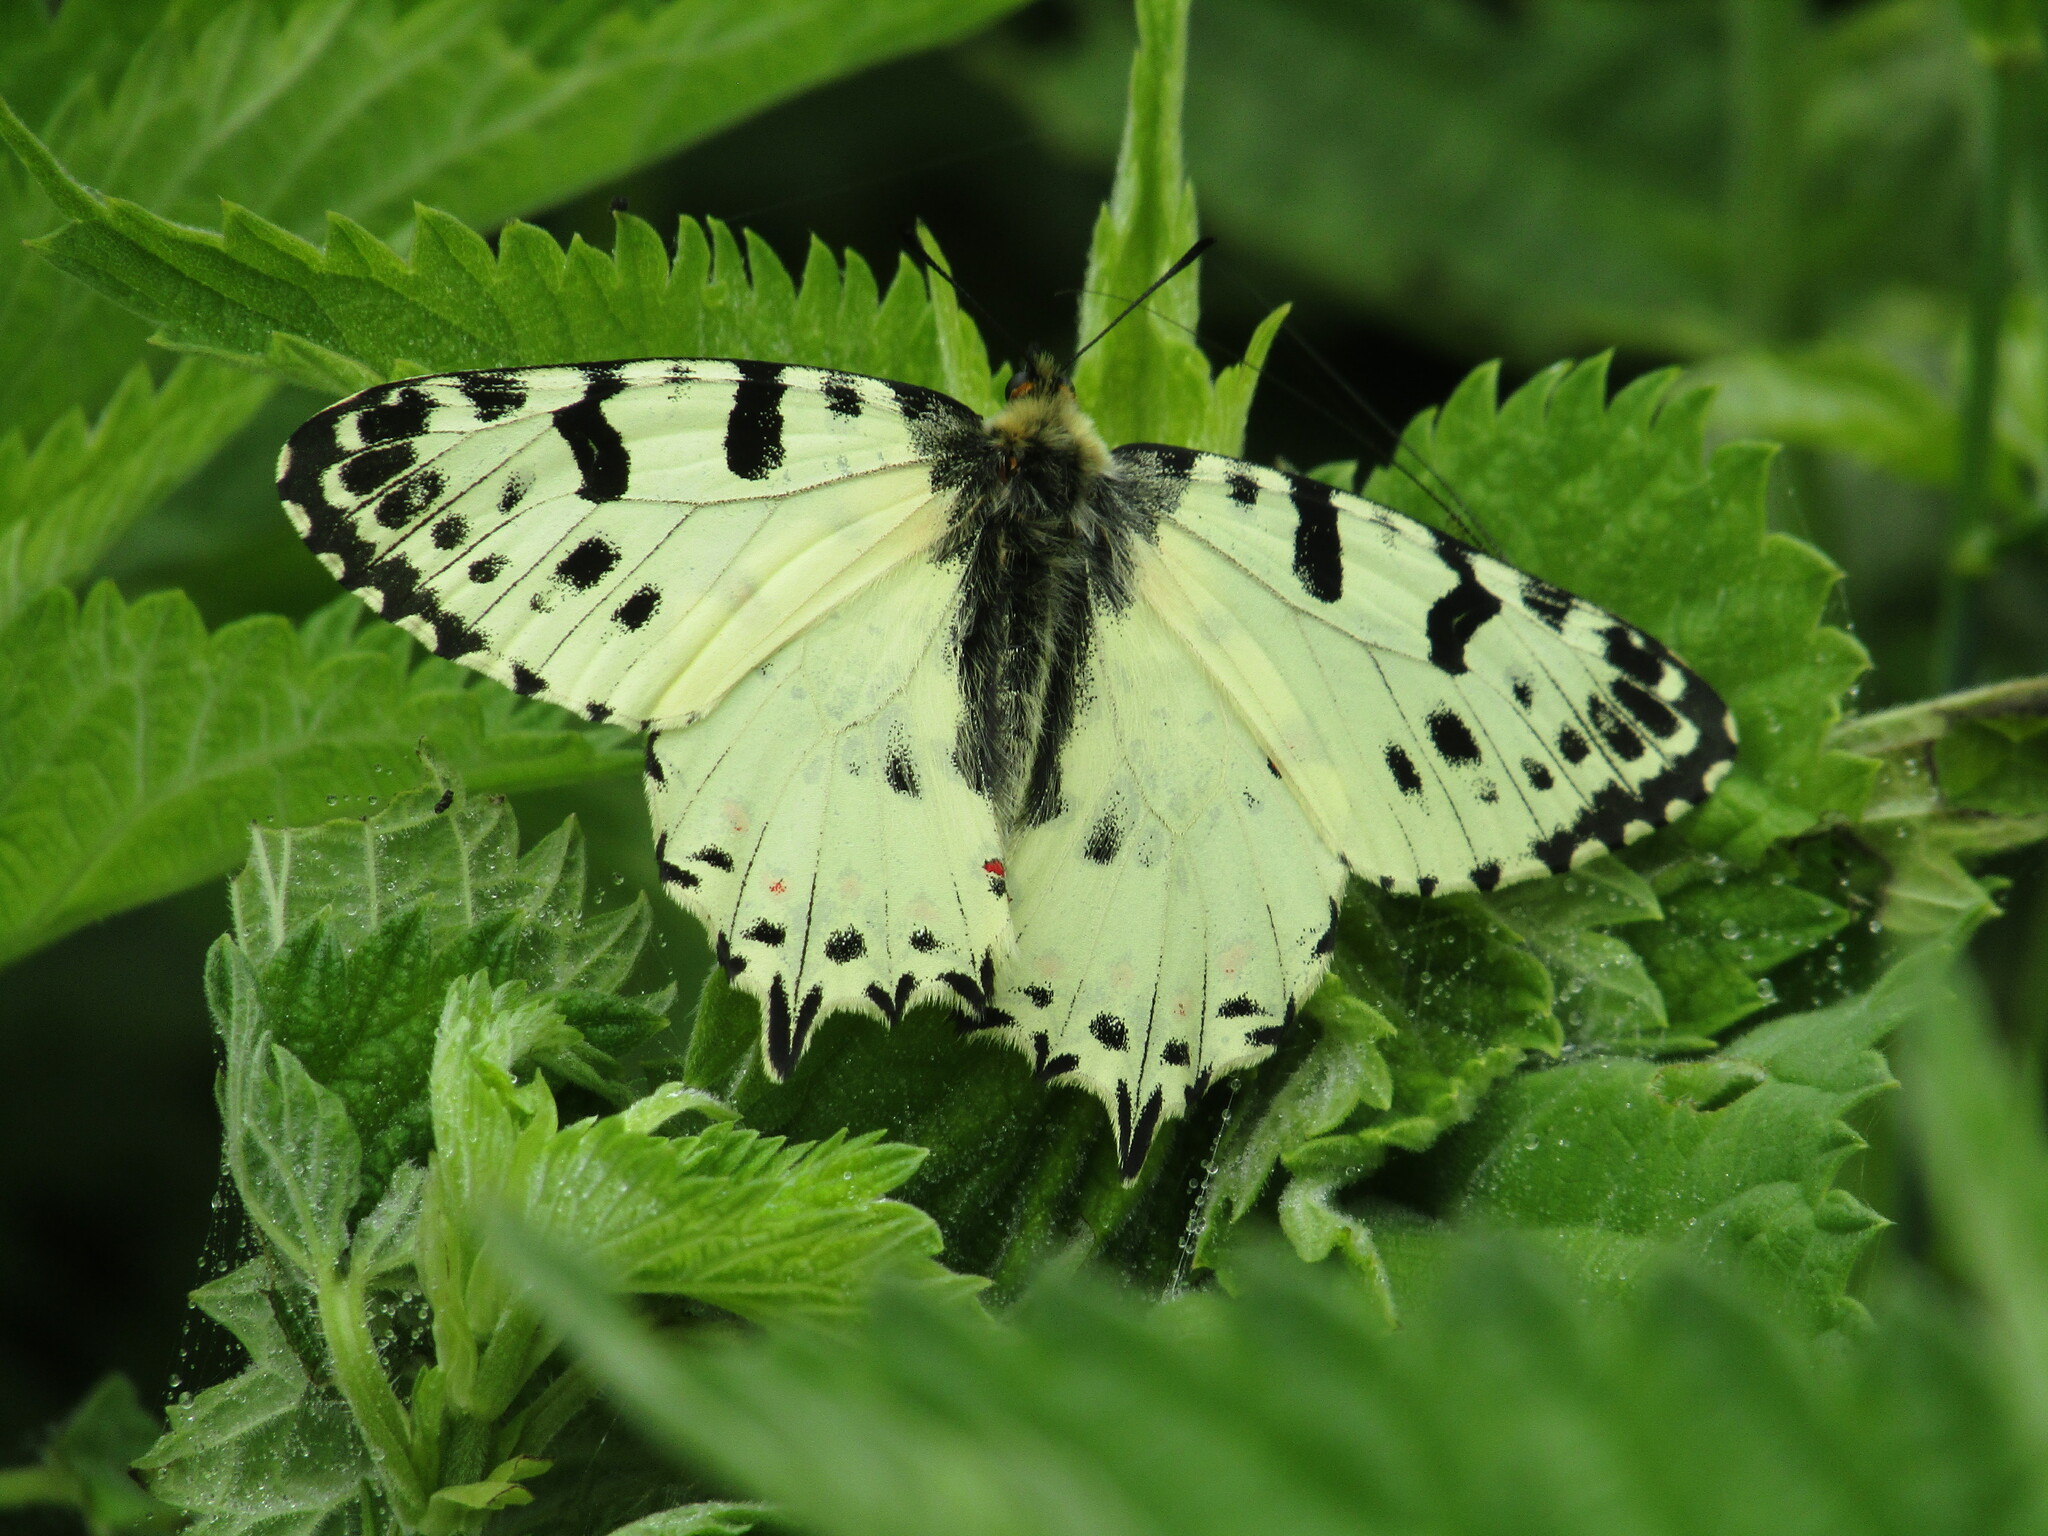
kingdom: Animalia
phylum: Arthropoda
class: Insecta
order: Lepidoptera
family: Papilionidae
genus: Zerynthia
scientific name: Zerynthia cerisy
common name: Eastern festoon
